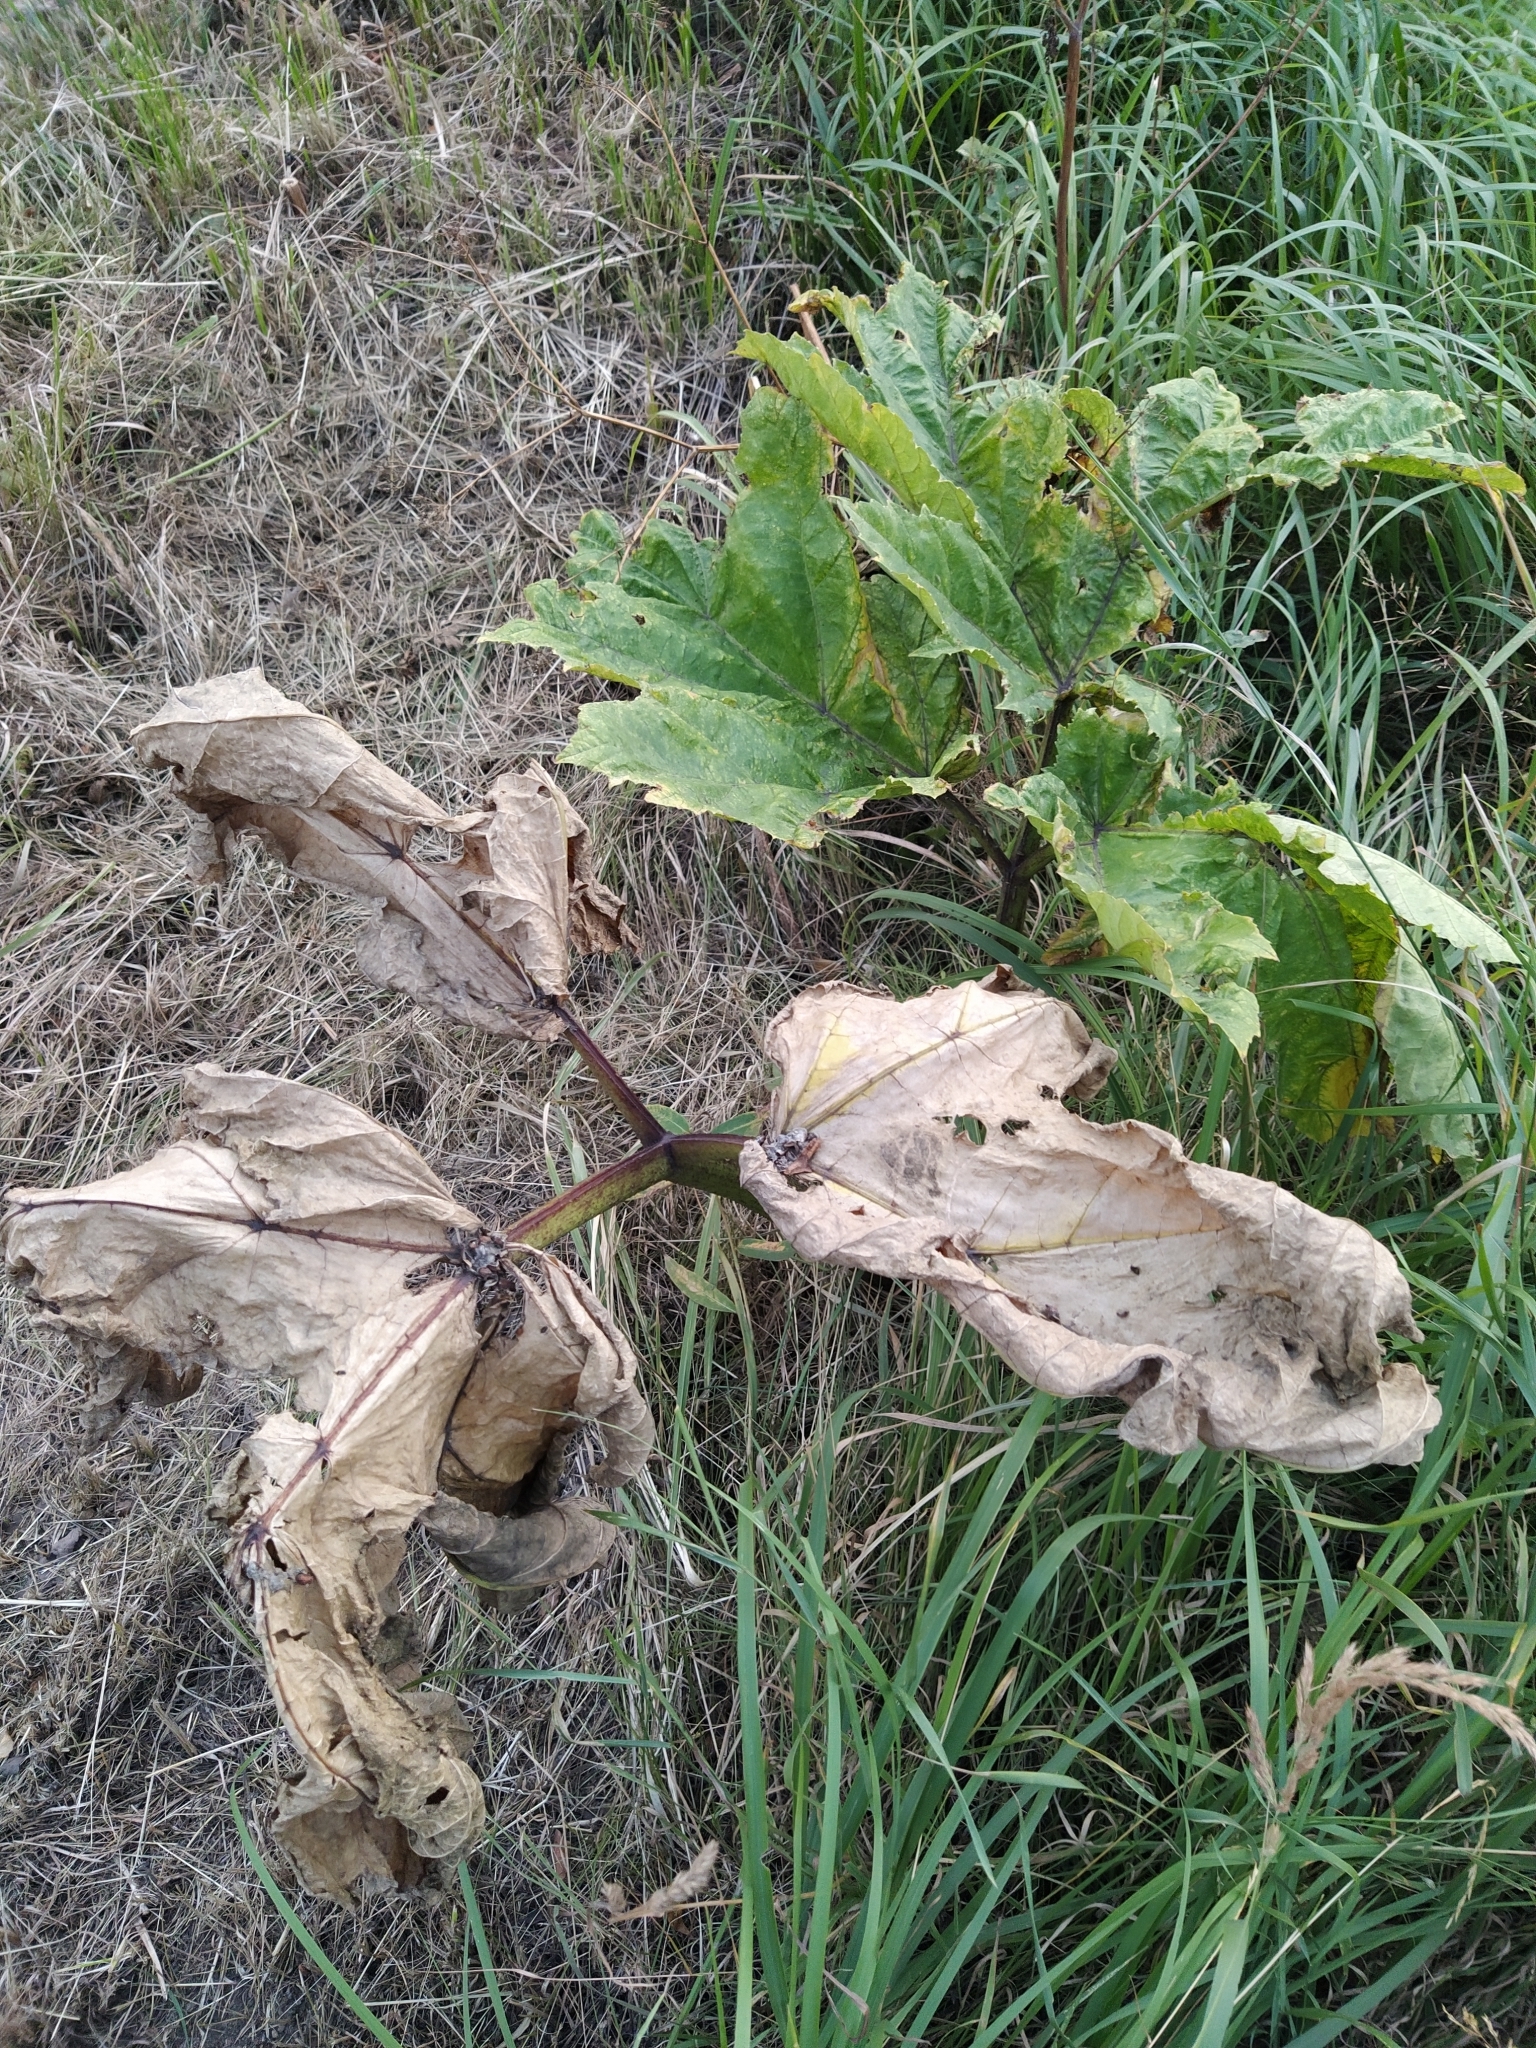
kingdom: Plantae
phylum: Tracheophyta
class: Magnoliopsida
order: Apiales
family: Apiaceae
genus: Heracleum
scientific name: Heracleum sosnowskyi
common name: Sosnowsky's hogweed
